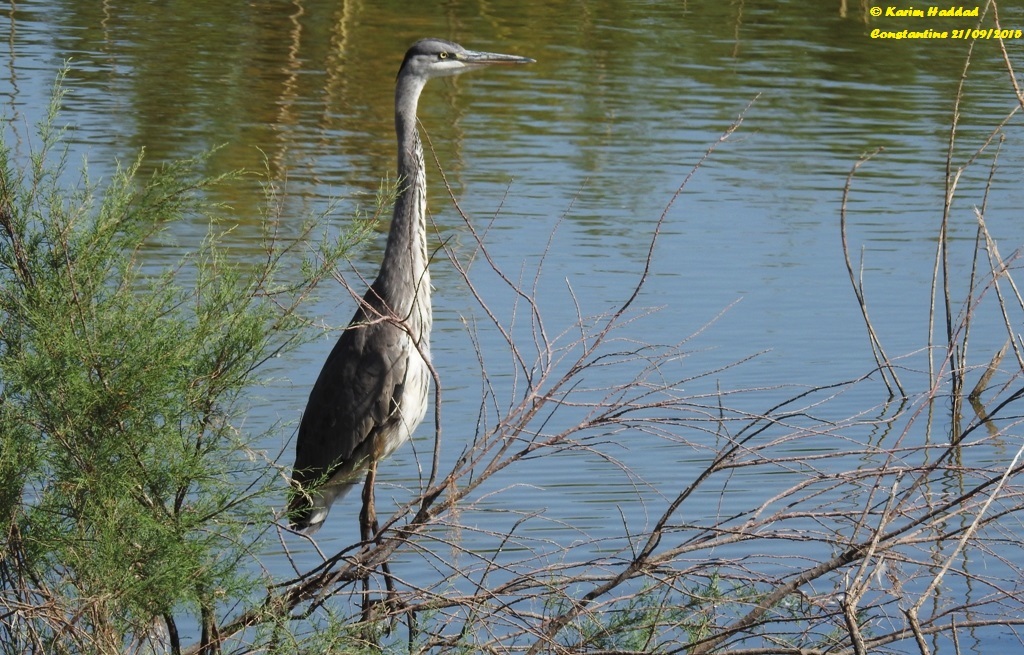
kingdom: Animalia
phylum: Chordata
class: Aves
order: Pelecaniformes
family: Ardeidae
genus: Ardea
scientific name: Ardea cinerea
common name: Grey heron
